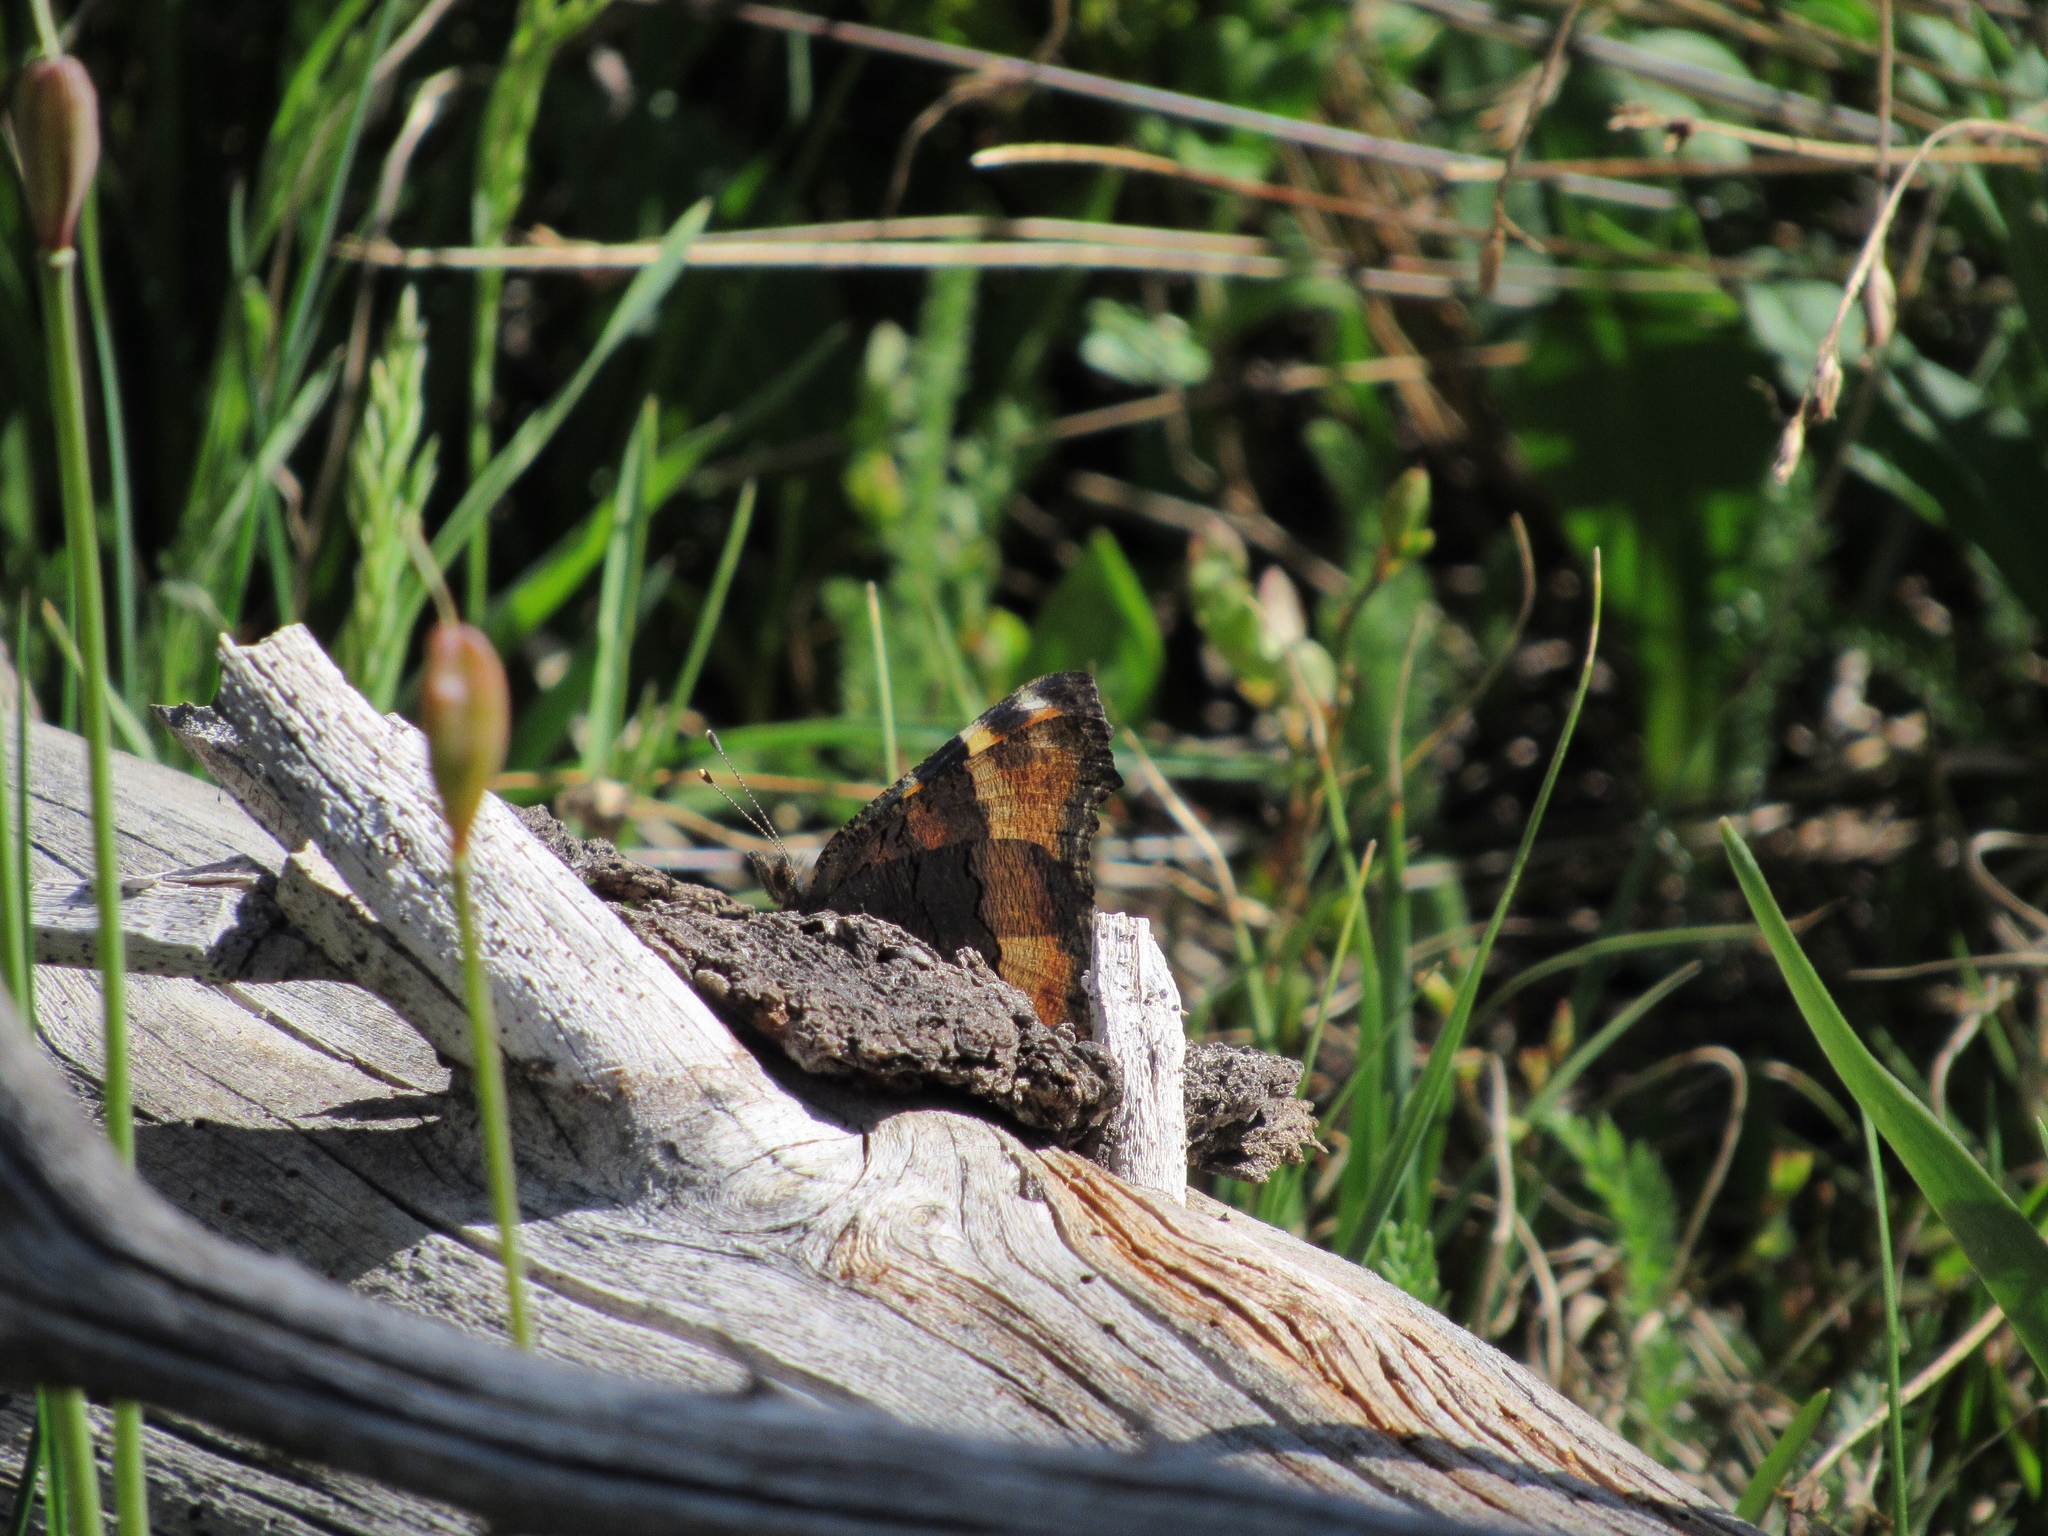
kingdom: Animalia
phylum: Arthropoda
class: Insecta
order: Lepidoptera
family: Nymphalidae
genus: Aglais
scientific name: Aglais milberti
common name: Milbert's tortoiseshell
